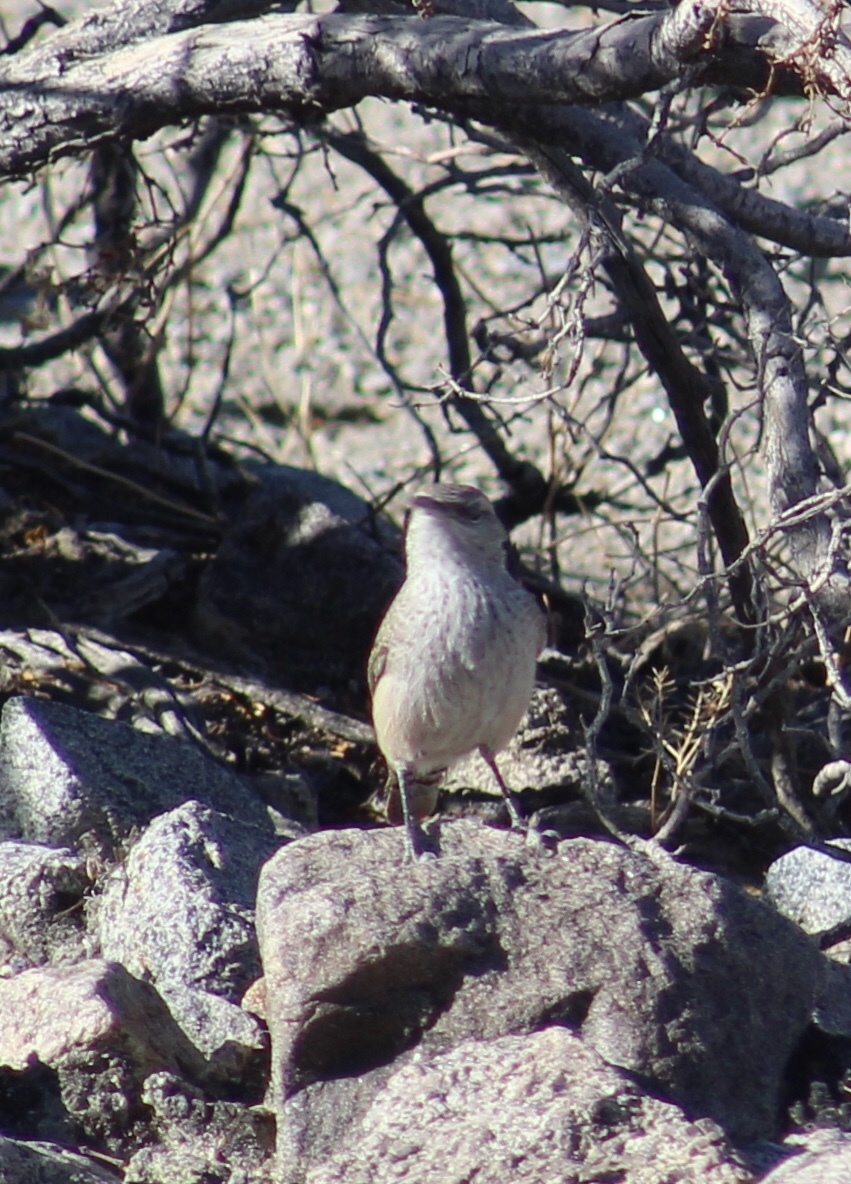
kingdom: Animalia
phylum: Chordata
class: Aves
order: Passeriformes
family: Troglodytidae
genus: Salpinctes
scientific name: Salpinctes obsoletus
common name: Rock wren
